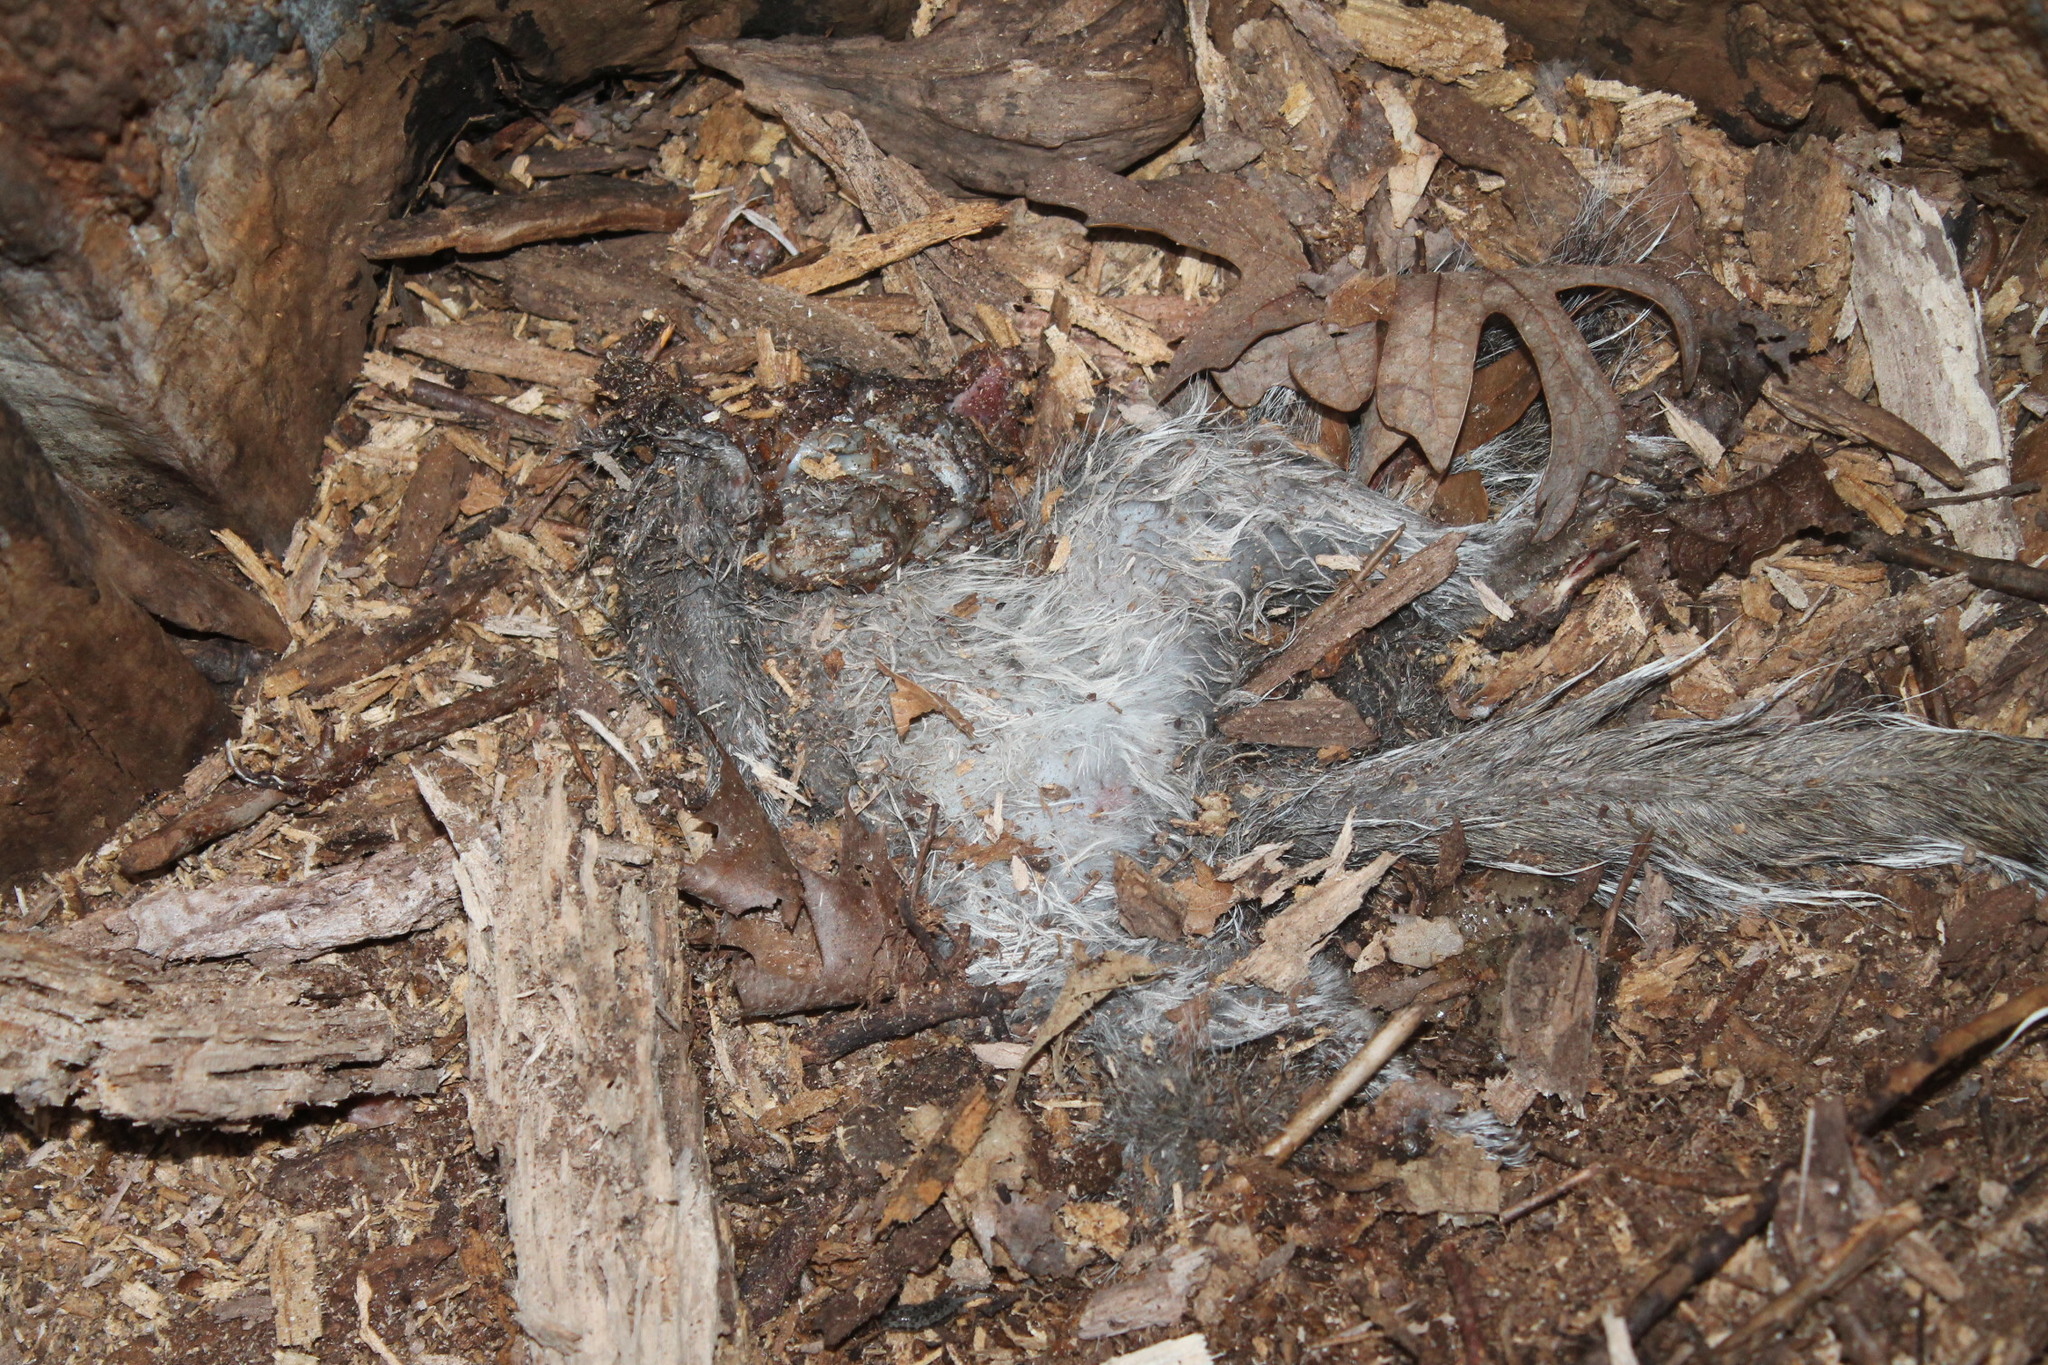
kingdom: Animalia
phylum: Chordata
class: Mammalia
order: Rodentia
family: Sciuridae
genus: Sciurus
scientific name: Sciurus carolinensis
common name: Eastern gray squirrel
